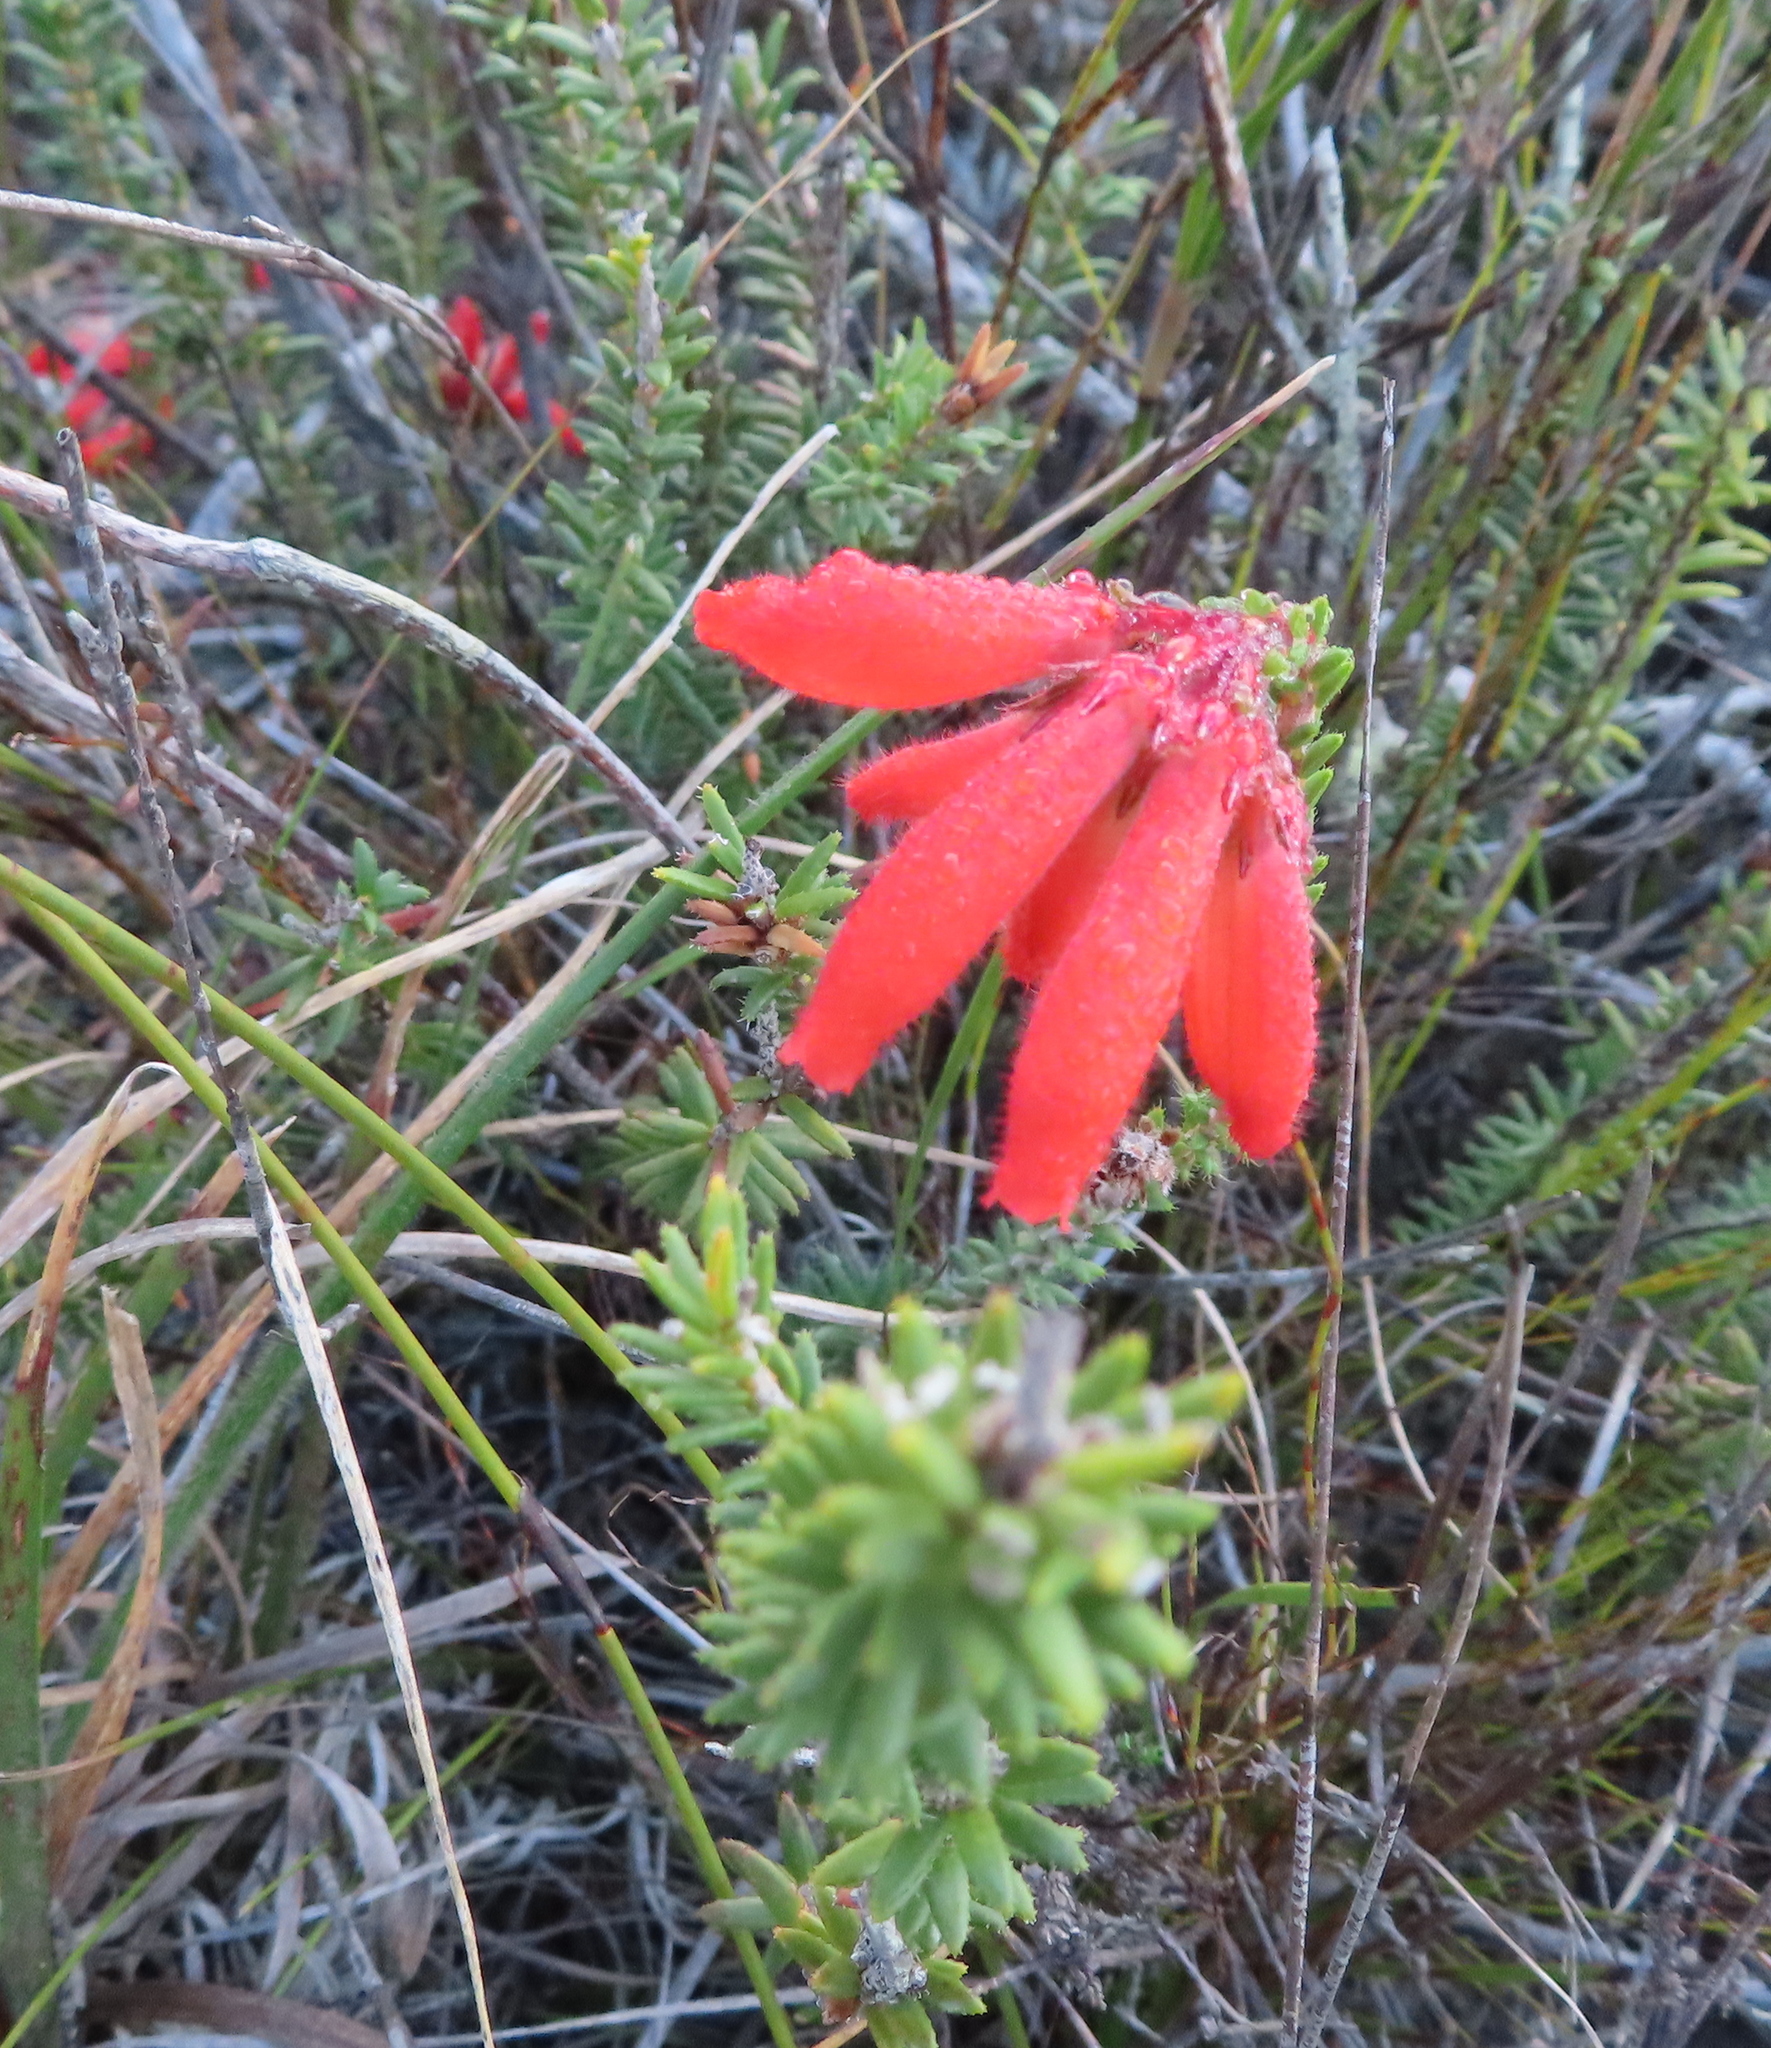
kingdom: Plantae
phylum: Tracheophyta
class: Magnoliopsida
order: Ericales
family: Ericaceae
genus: Erica
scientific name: Erica cerinthoides
